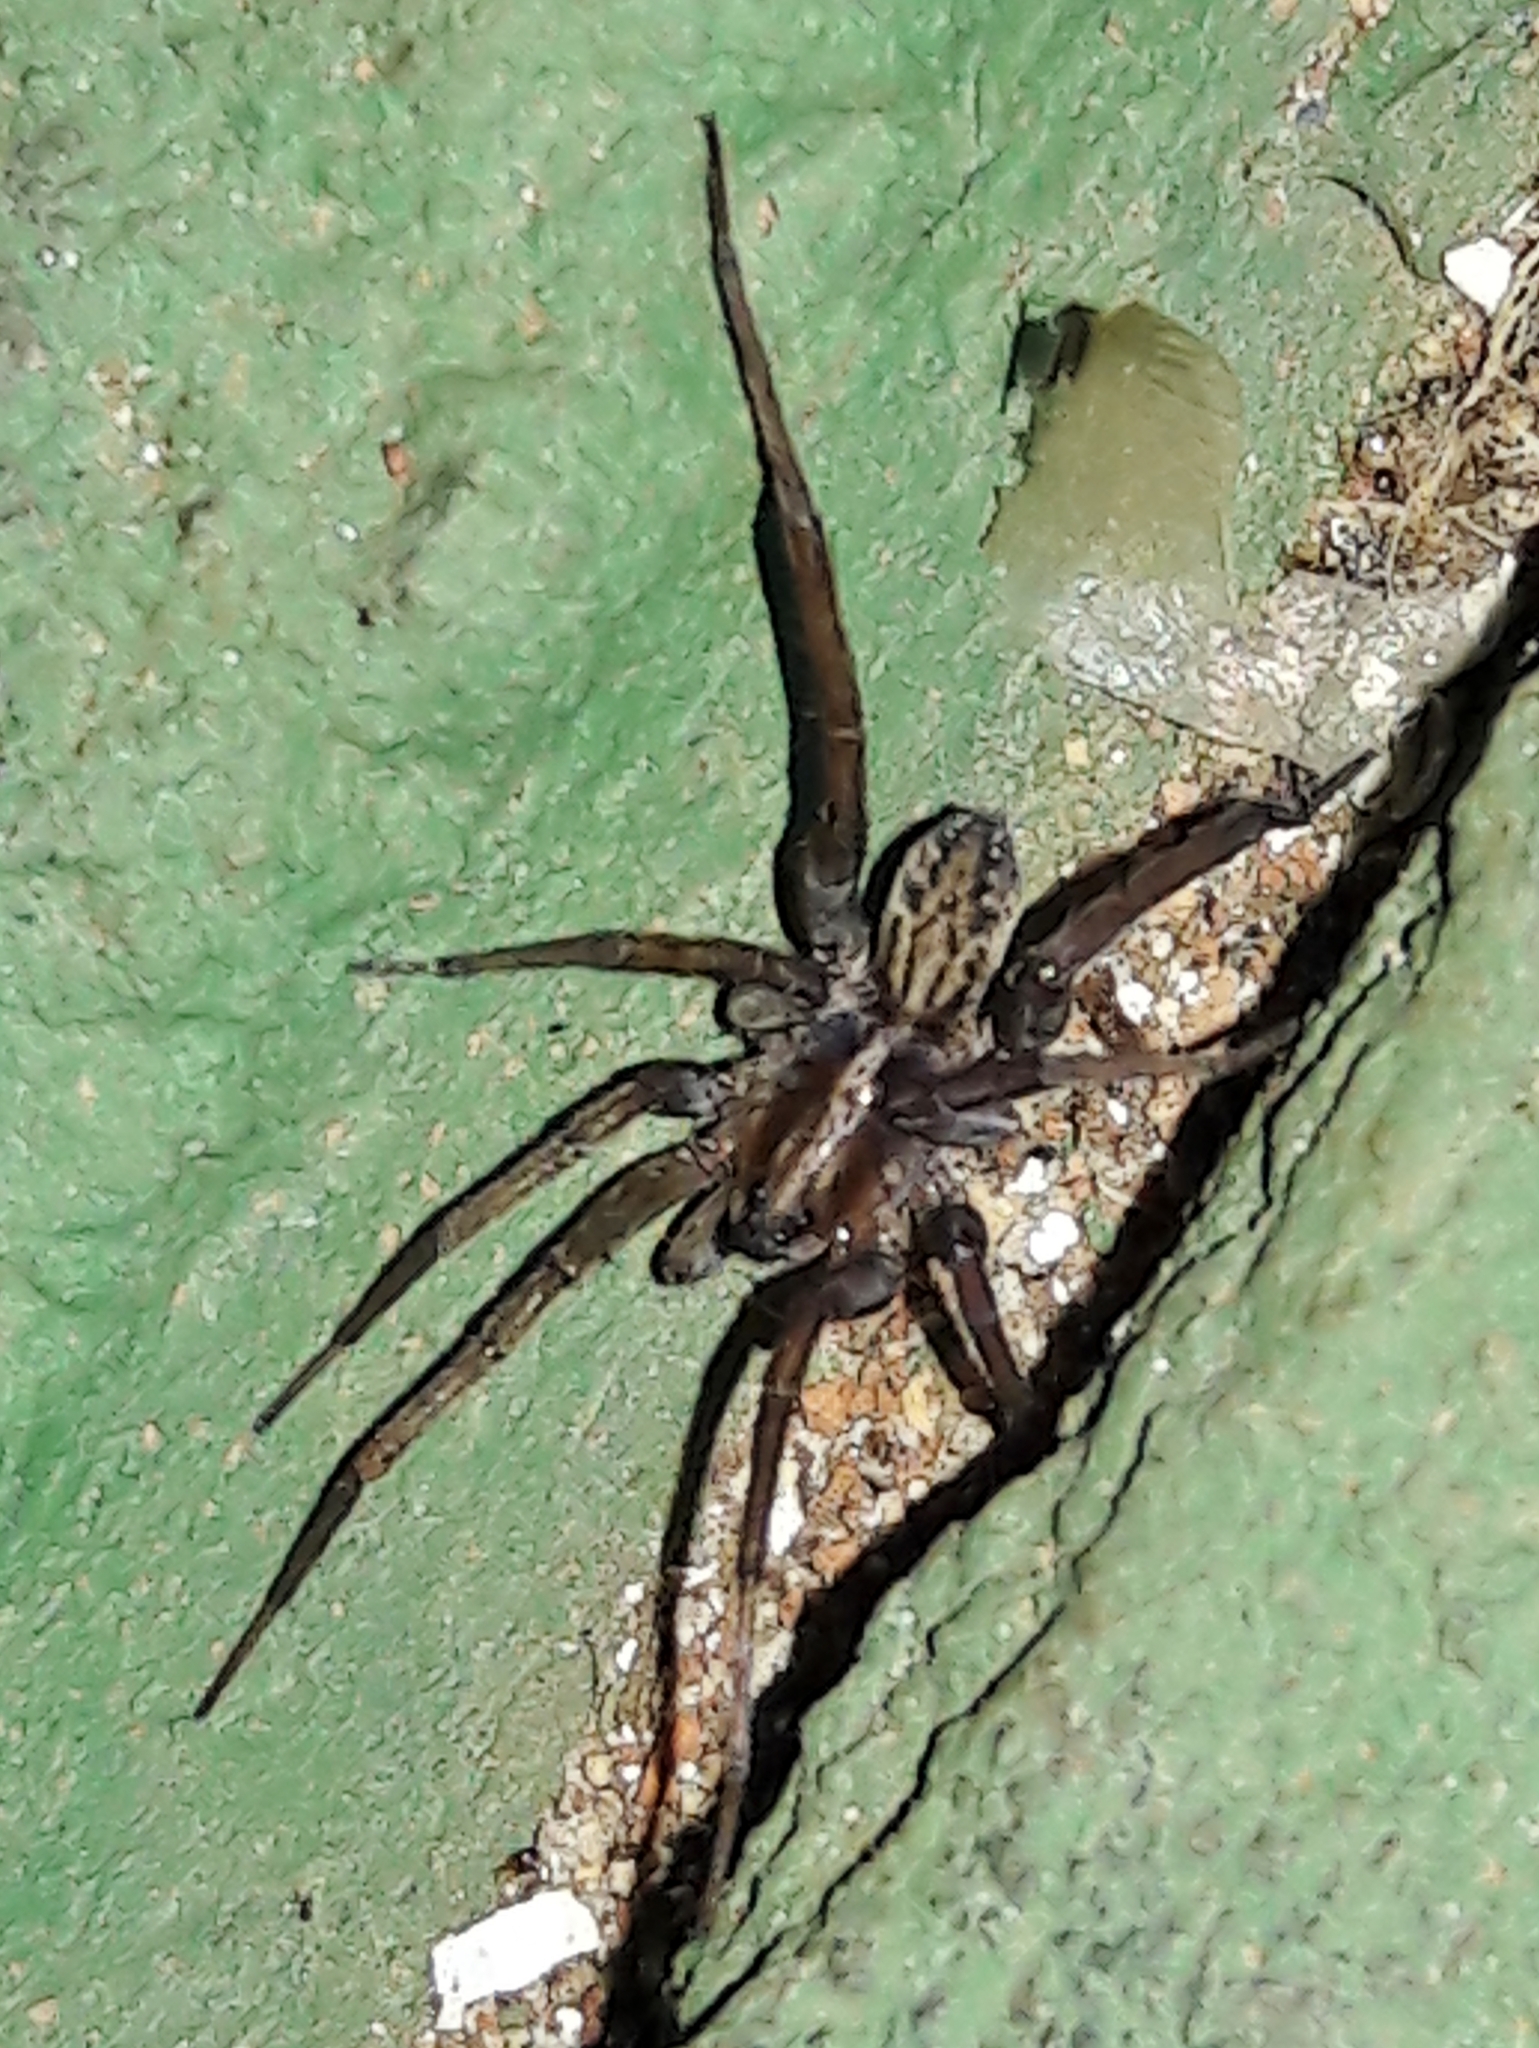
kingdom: Animalia
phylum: Arthropoda
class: Arachnida
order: Araneae
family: Lycosidae
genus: Trochosa
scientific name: Trochosa
